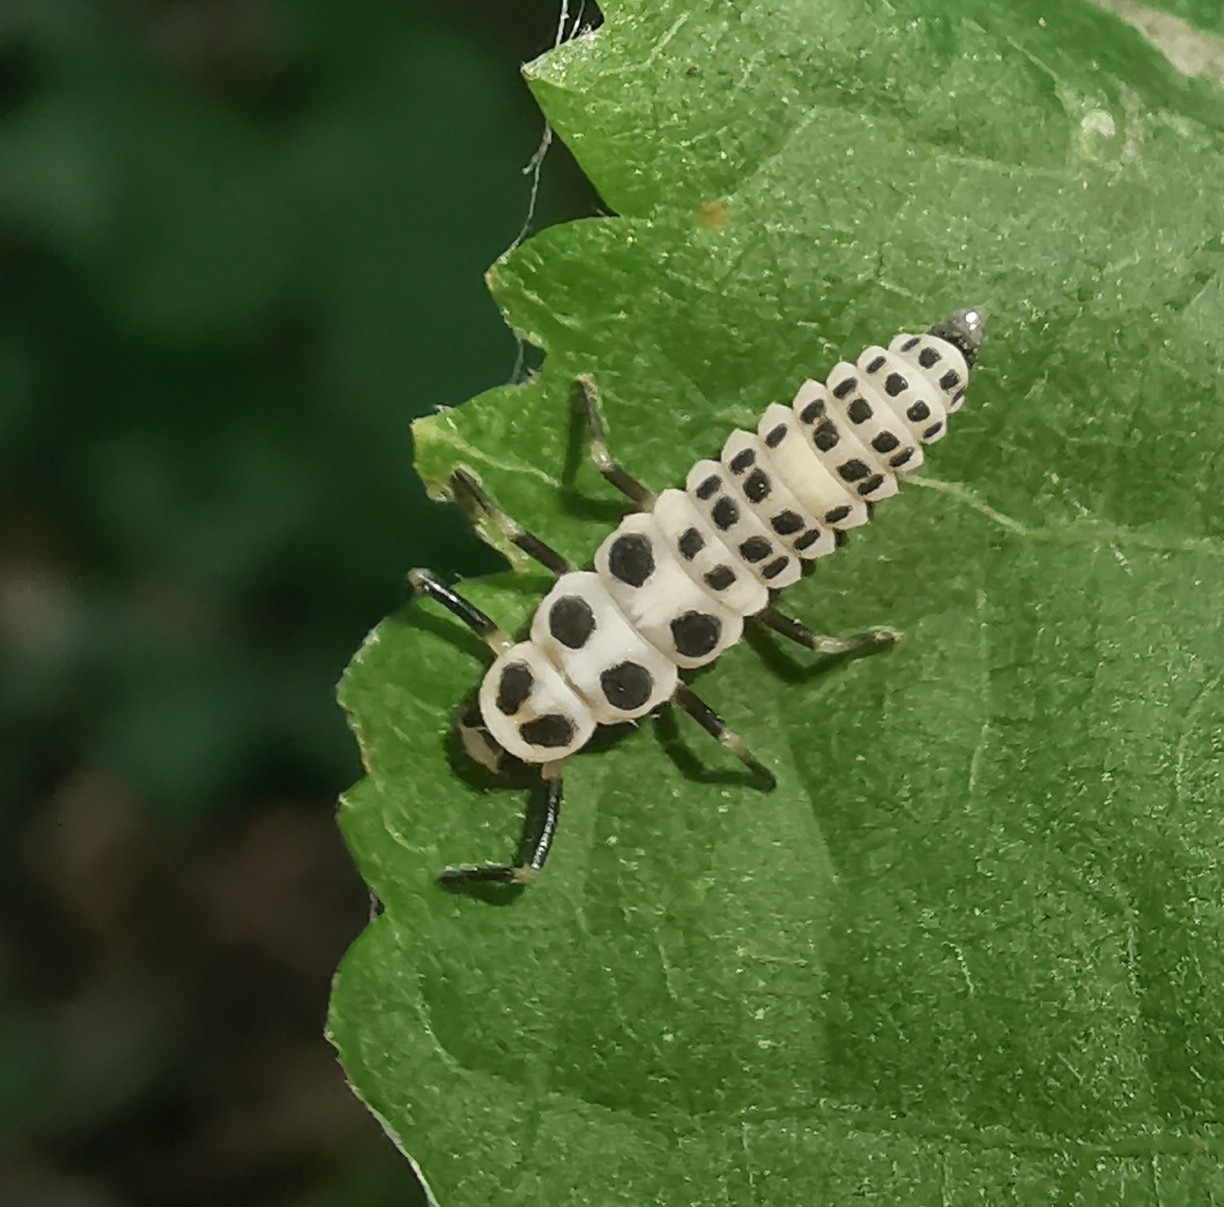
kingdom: Animalia
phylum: Arthropoda
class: Insecta
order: Coleoptera
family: Coccinellidae
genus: Calvia
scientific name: Calvia decemguttata
